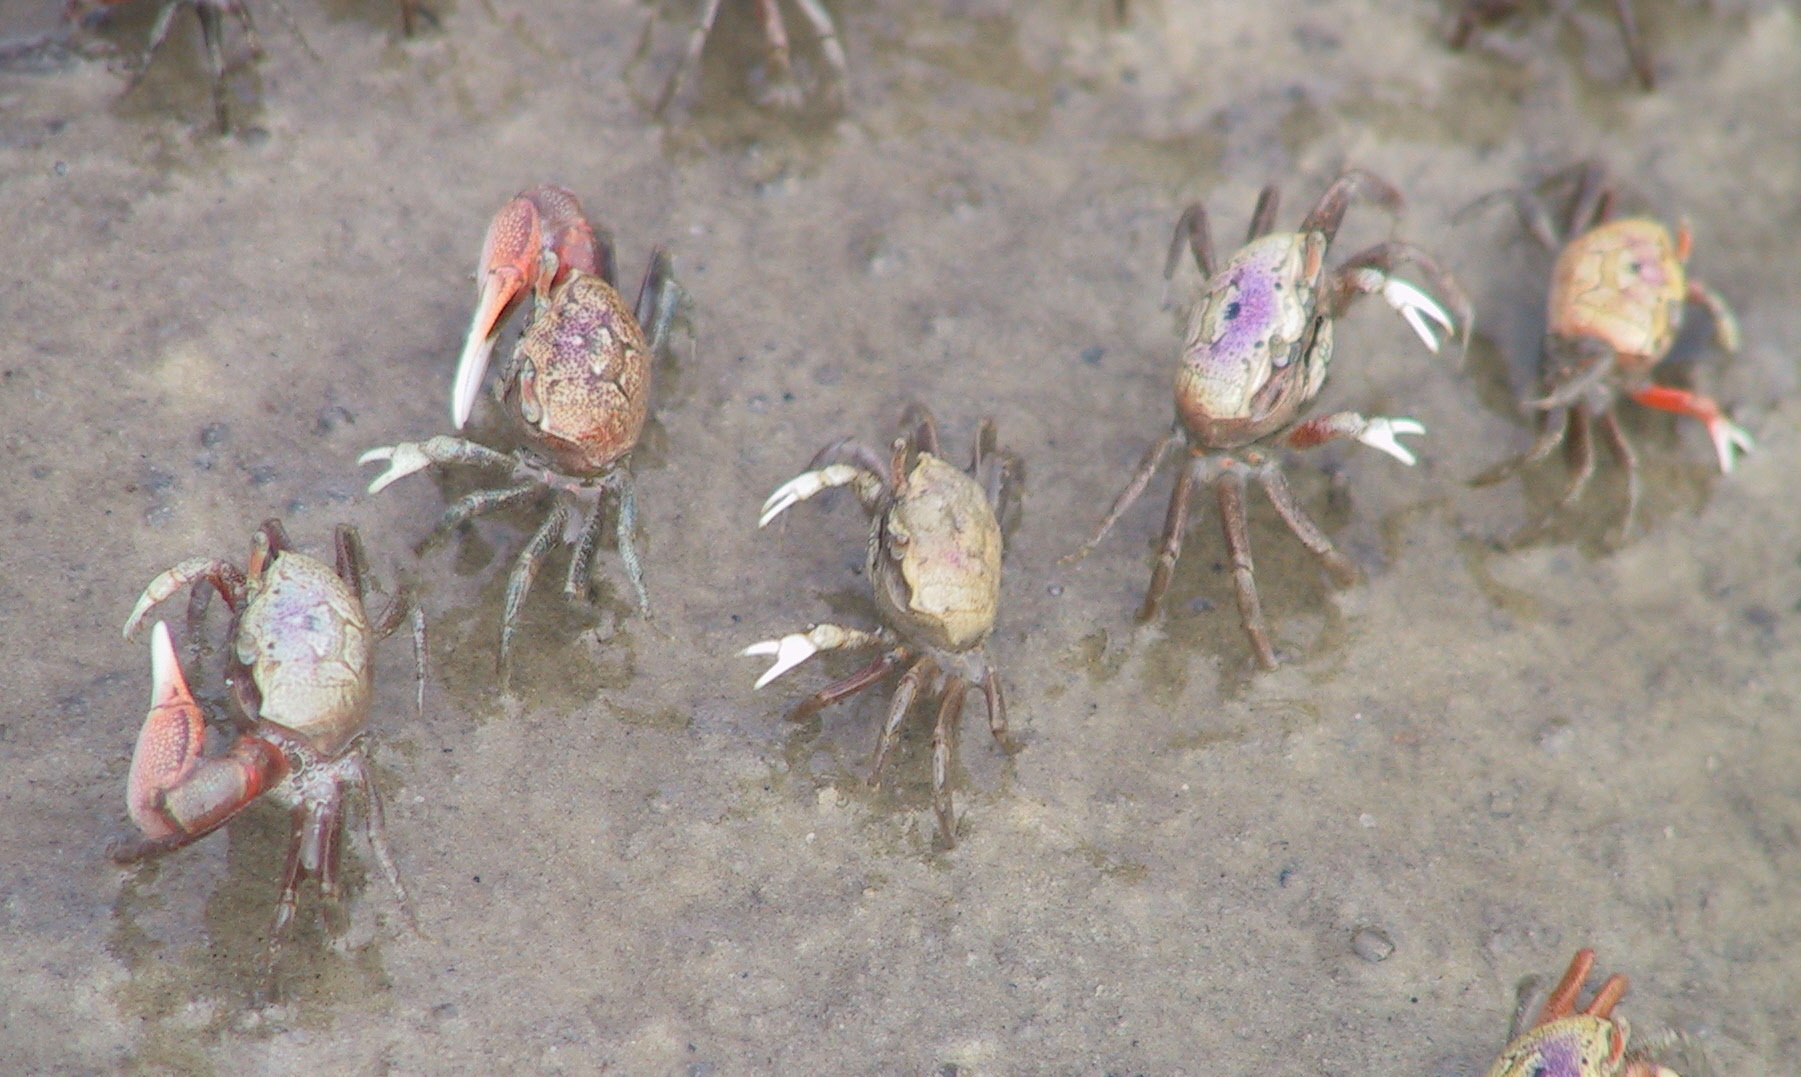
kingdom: Animalia
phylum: Arthropoda
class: Malacostraca
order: Decapoda
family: Ocypodidae
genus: Leptuca
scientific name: Leptuca pugilator
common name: Atlantic sand fiddler crab
